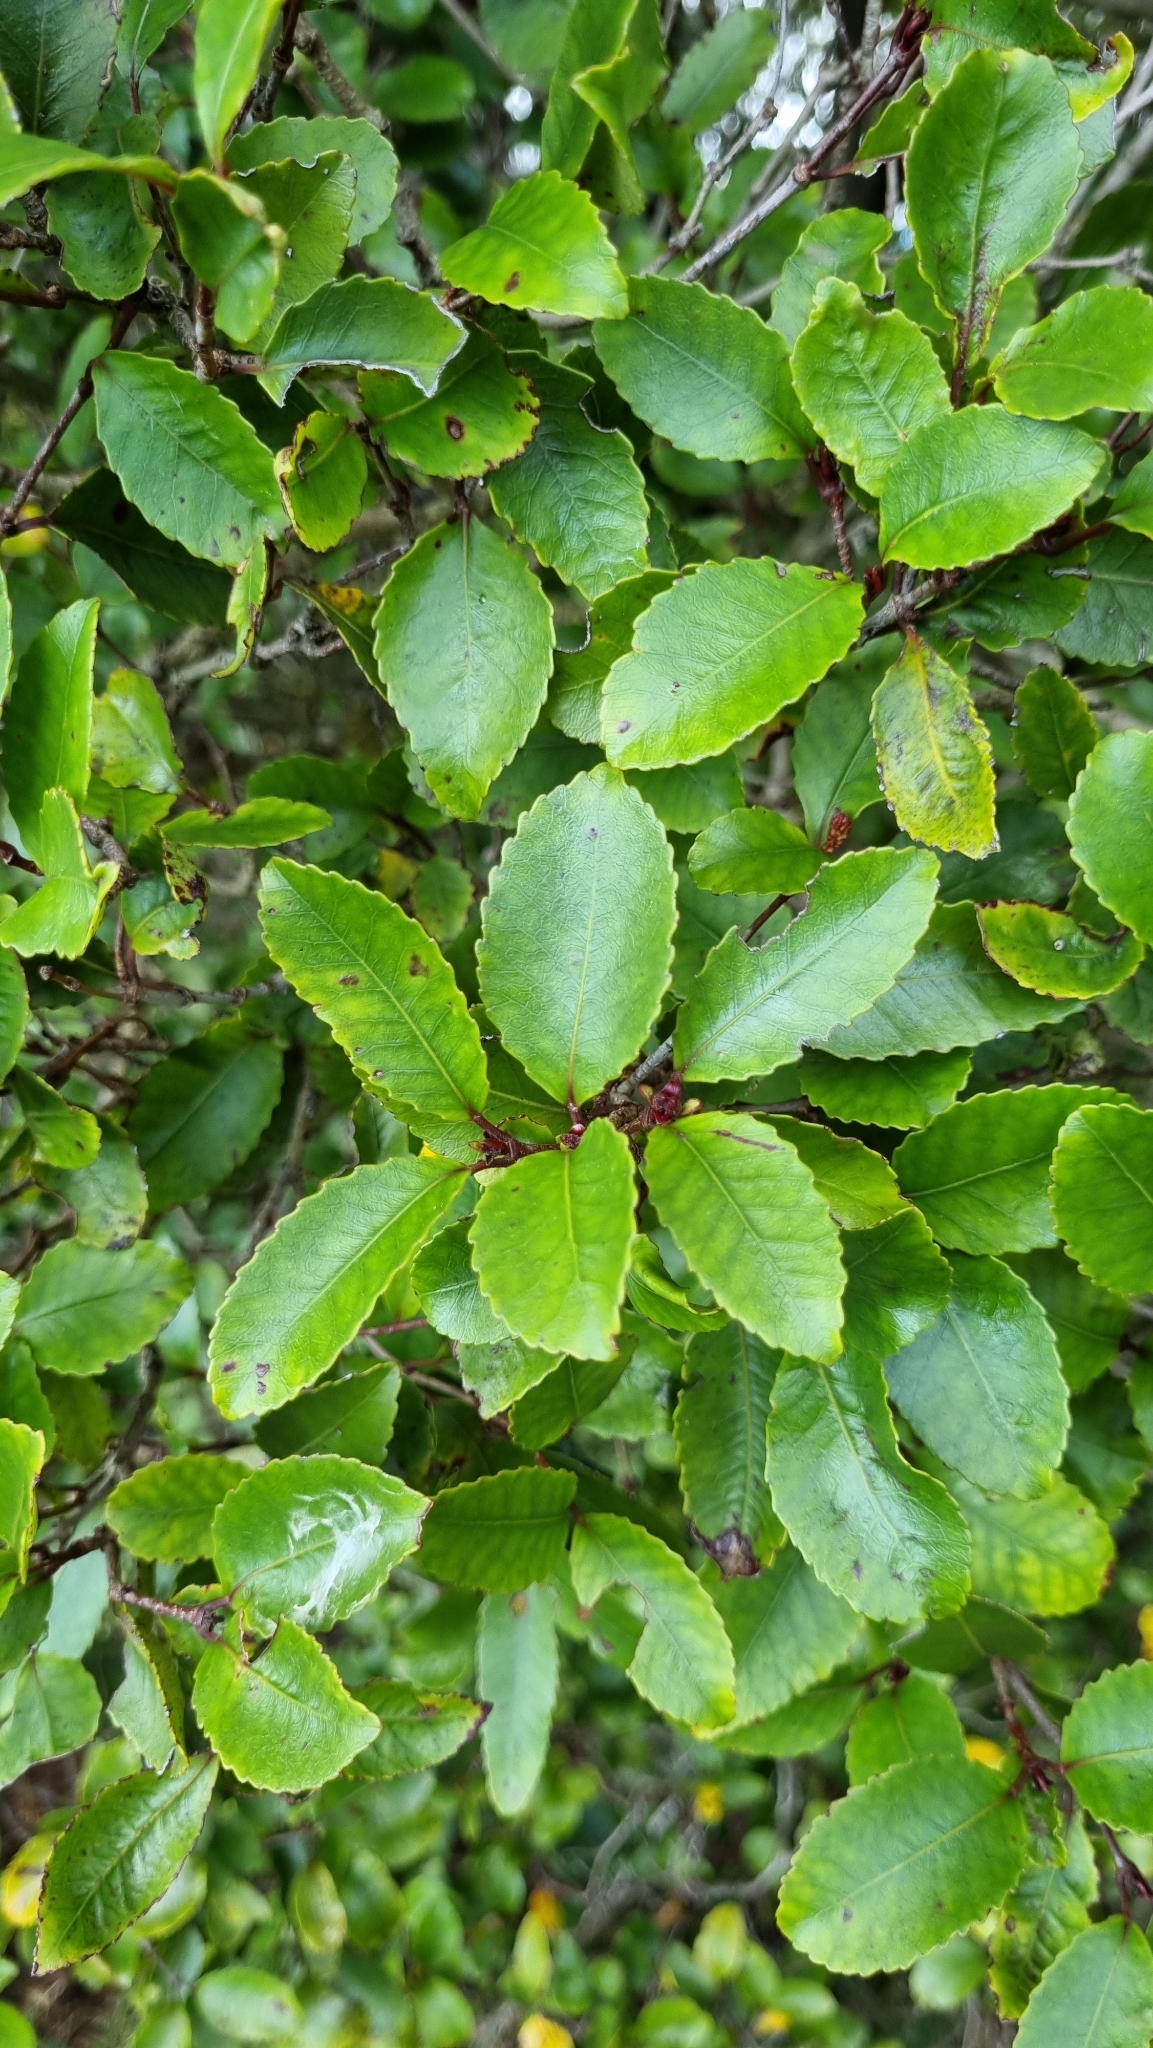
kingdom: Plantae
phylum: Tracheophyta
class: Magnoliopsida
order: Oxalidales
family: Cunoniaceae
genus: Pterophylla
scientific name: Pterophylla racemosa
